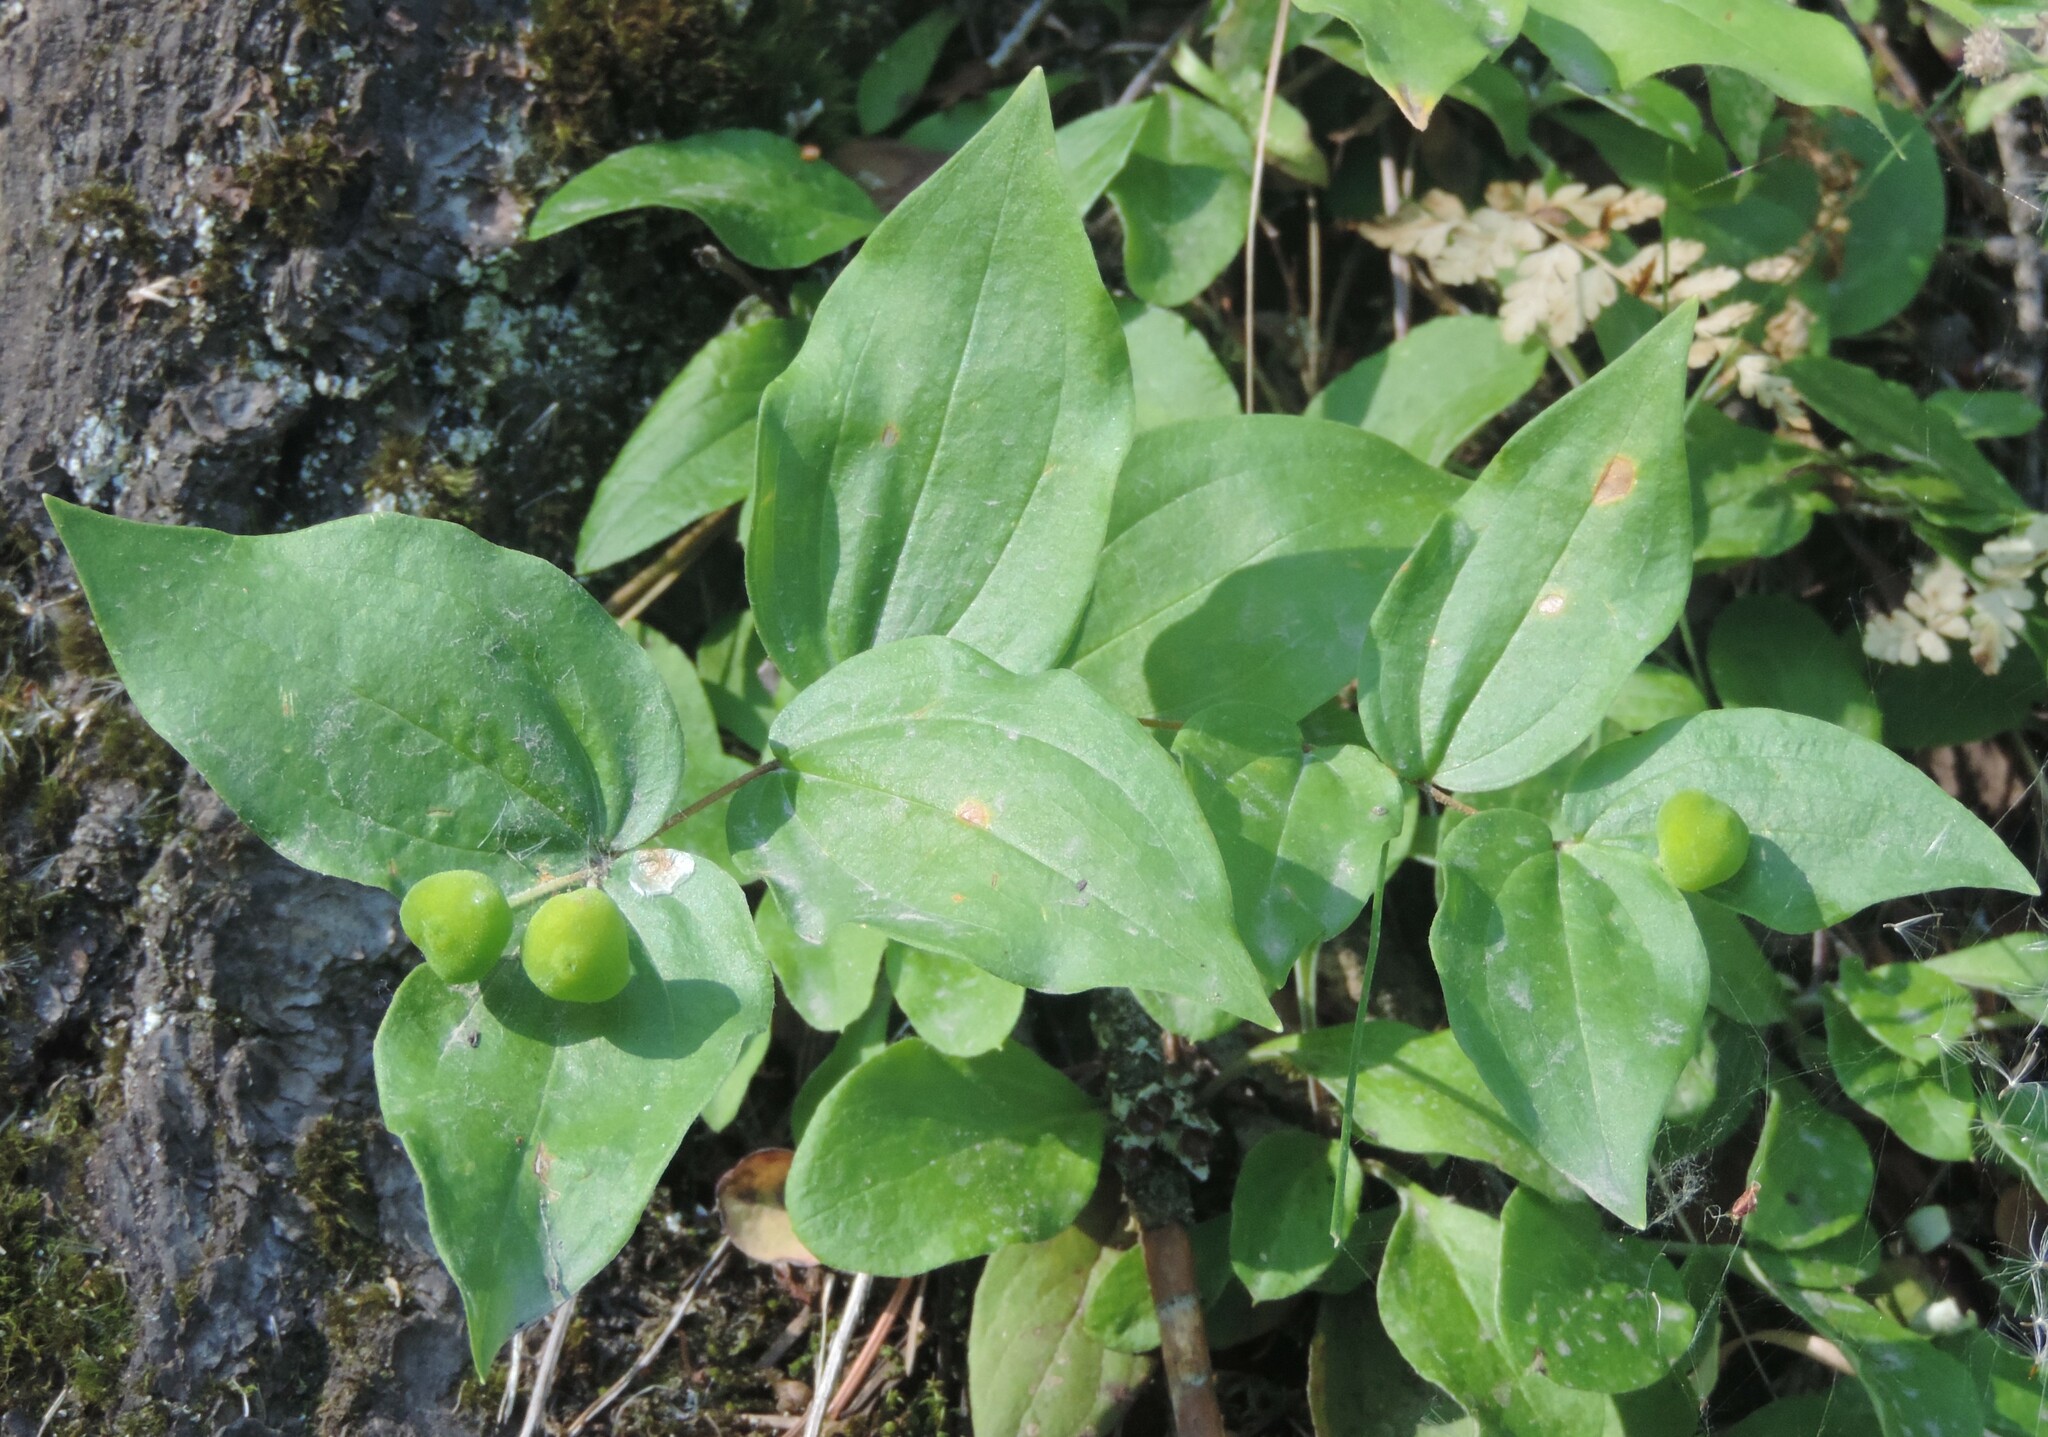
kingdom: Plantae
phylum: Tracheophyta
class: Liliopsida
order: Liliales
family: Liliaceae
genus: Prosartes
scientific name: Prosartes trachycarpa
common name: Rough-fruit fairy-bells
